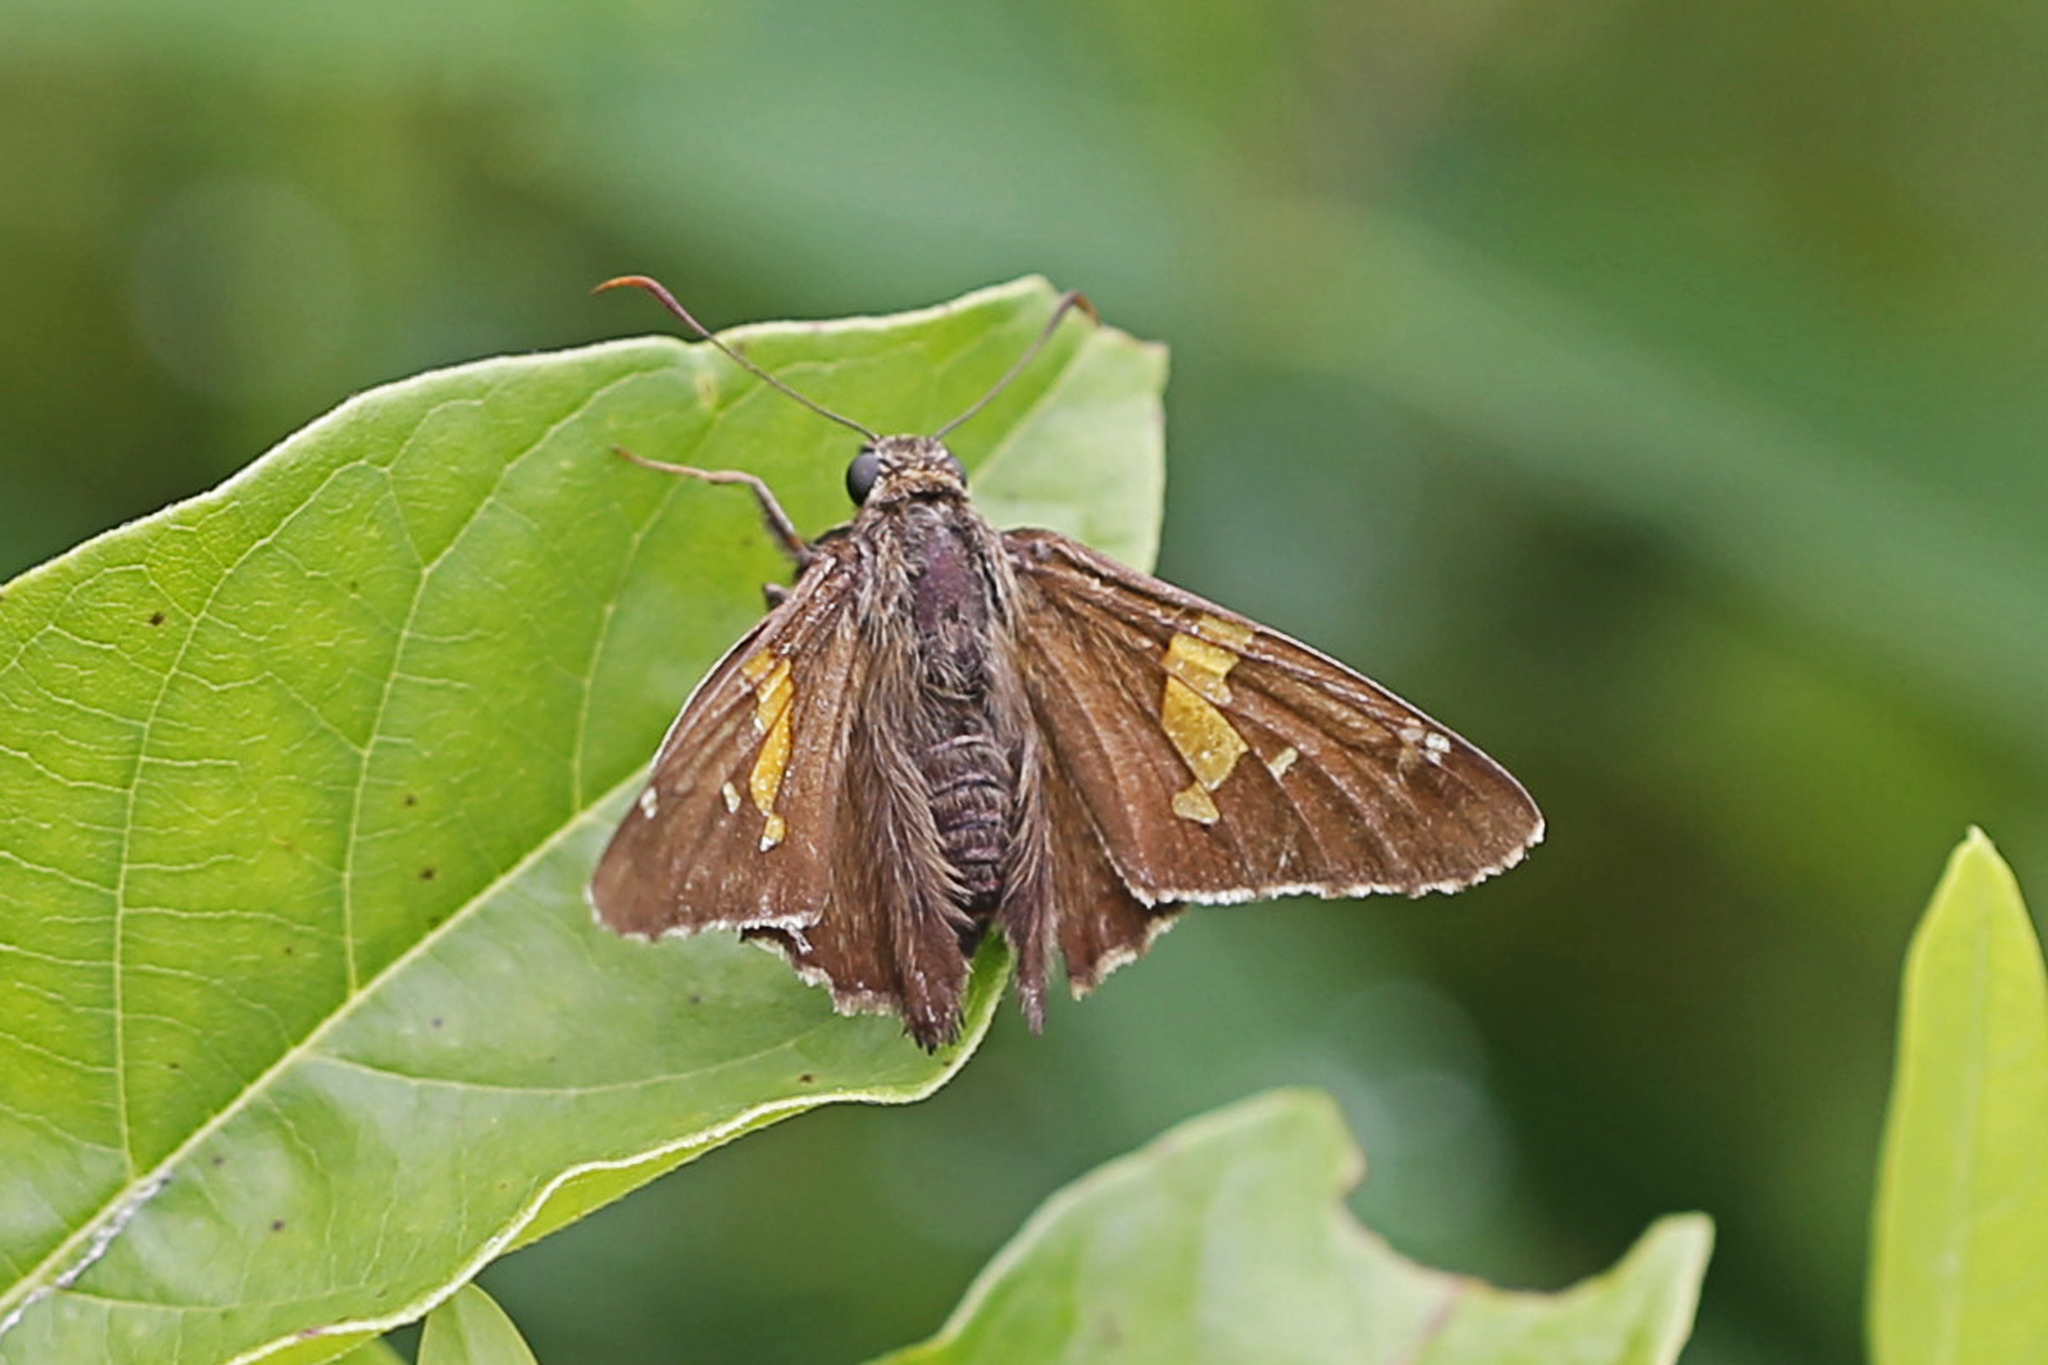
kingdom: Animalia
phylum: Arthropoda
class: Insecta
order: Lepidoptera
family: Hesperiidae
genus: Epargyreus
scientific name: Epargyreus clarus
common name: Silver-spotted skipper
